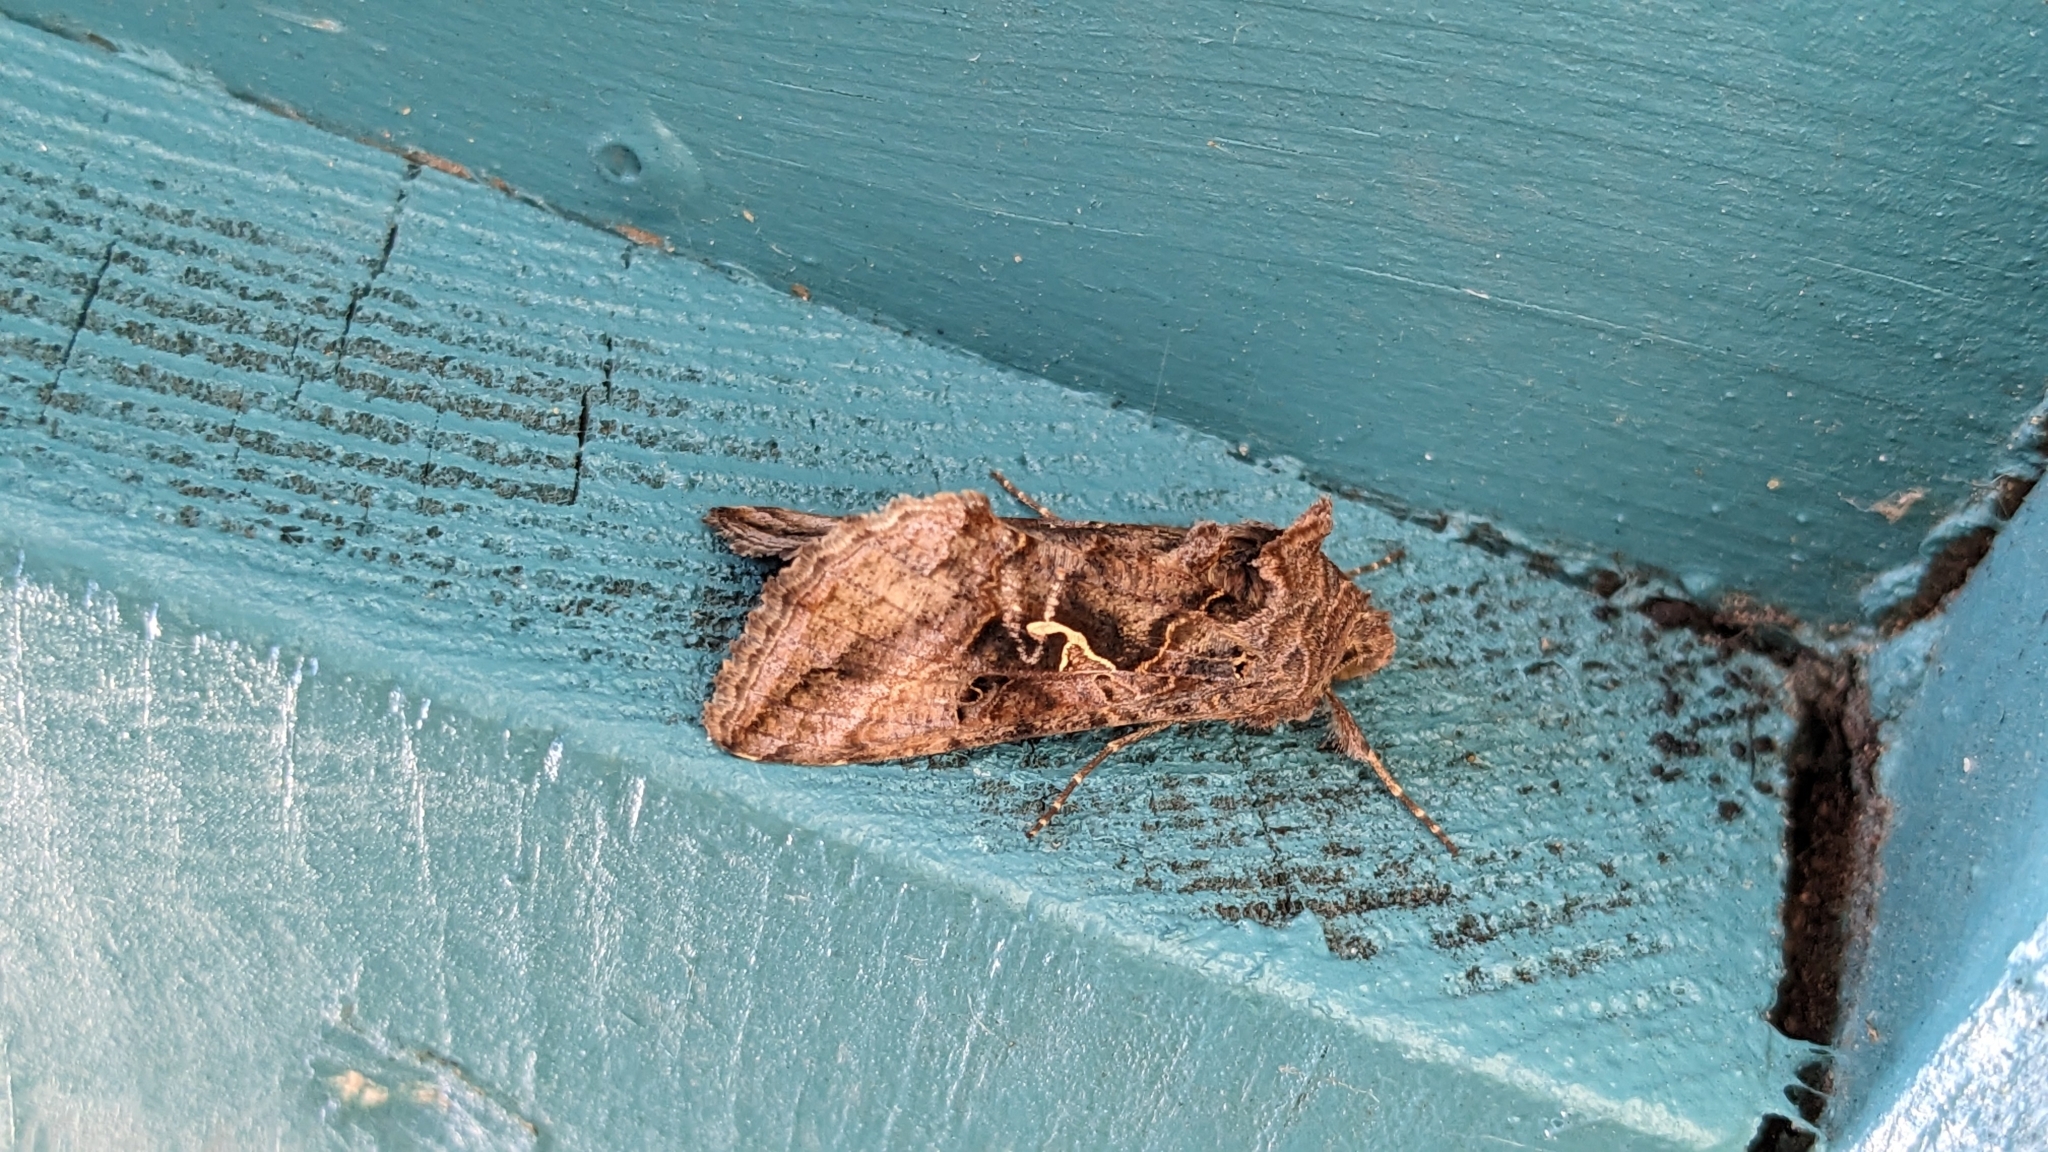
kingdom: Animalia
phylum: Arthropoda
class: Insecta
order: Lepidoptera
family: Noctuidae
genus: Autographa
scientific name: Autographa gamma
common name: Silver y
